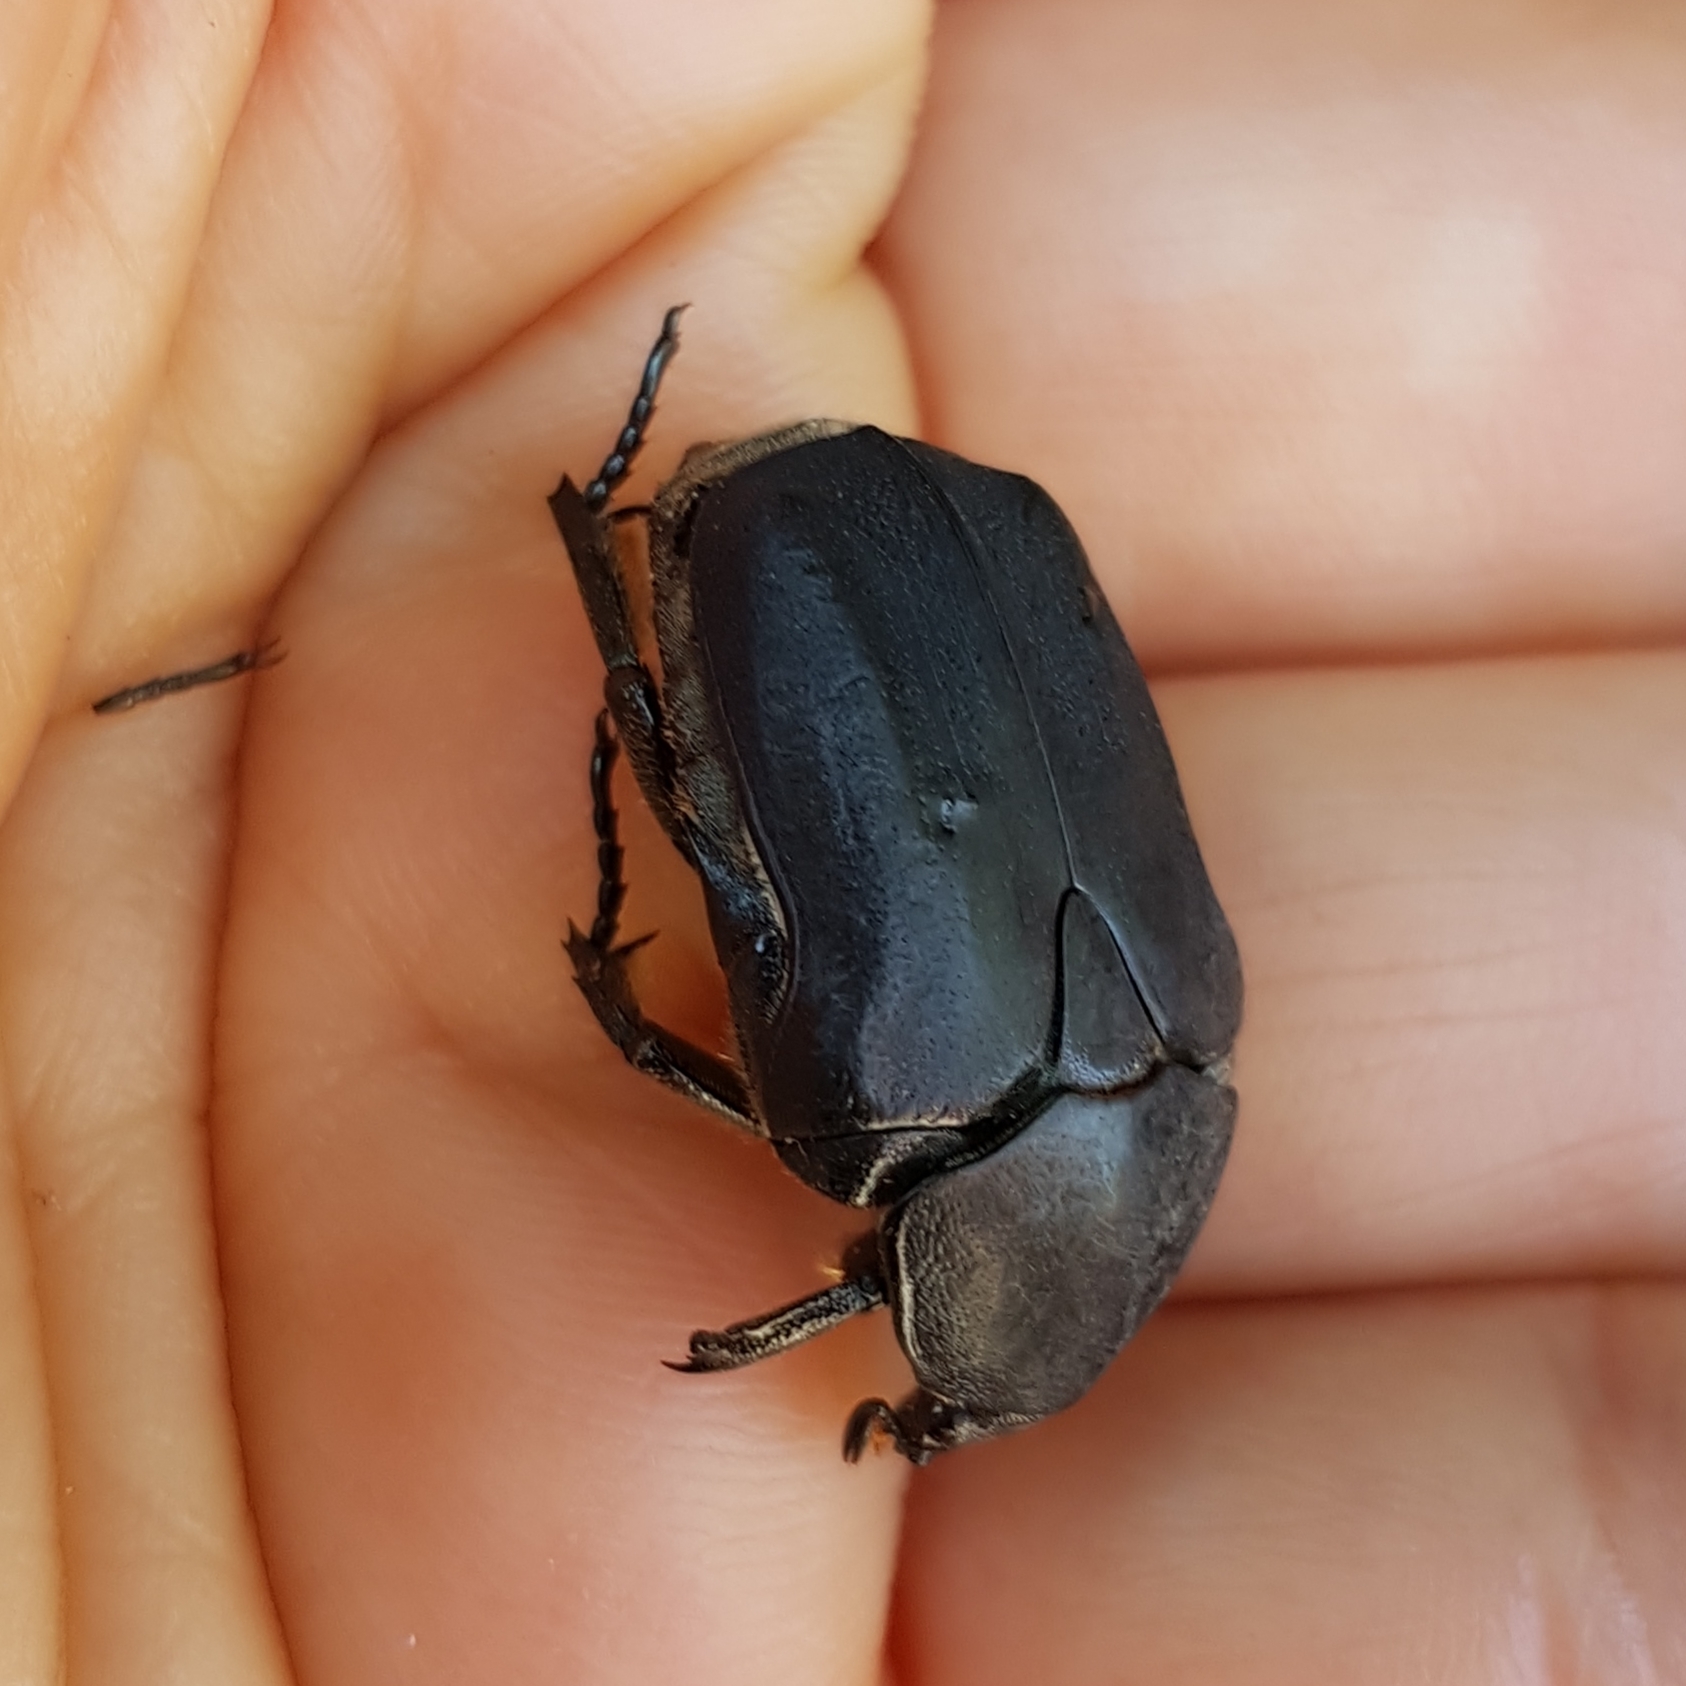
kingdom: Animalia
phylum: Arthropoda
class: Insecta
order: Coleoptera
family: Scarabaeidae
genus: Protaetia
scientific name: Protaetia morio
